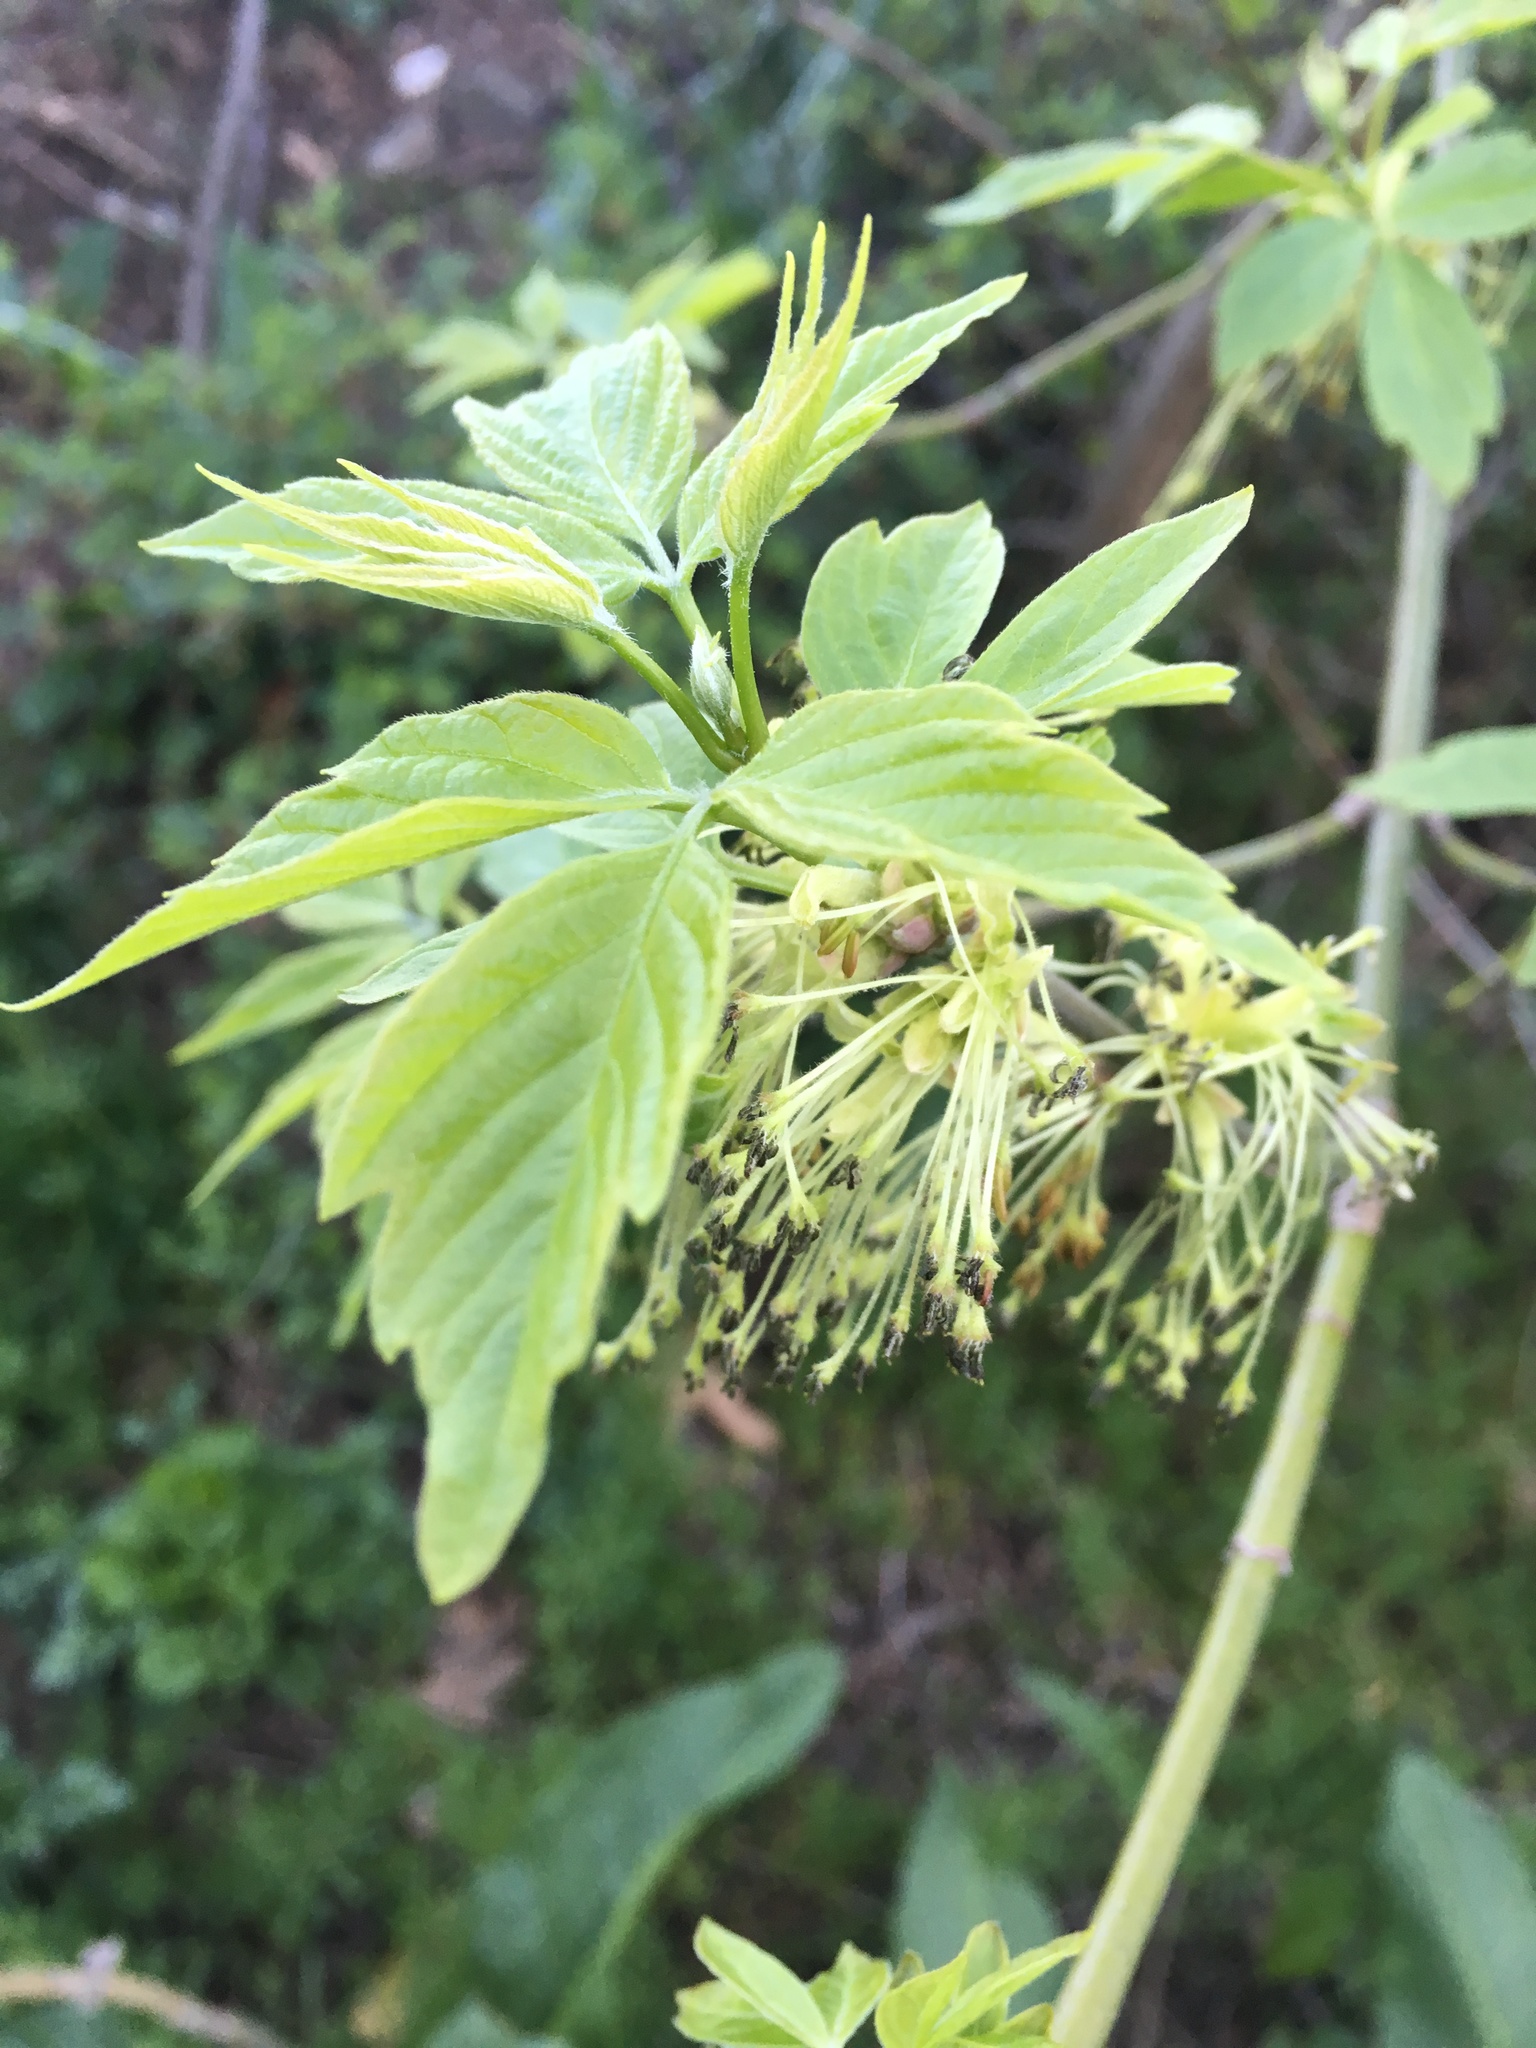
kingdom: Plantae
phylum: Tracheophyta
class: Magnoliopsida
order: Sapindales
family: Sapindaceae
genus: Acer
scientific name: Acer negundo
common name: Ashleaf maple
